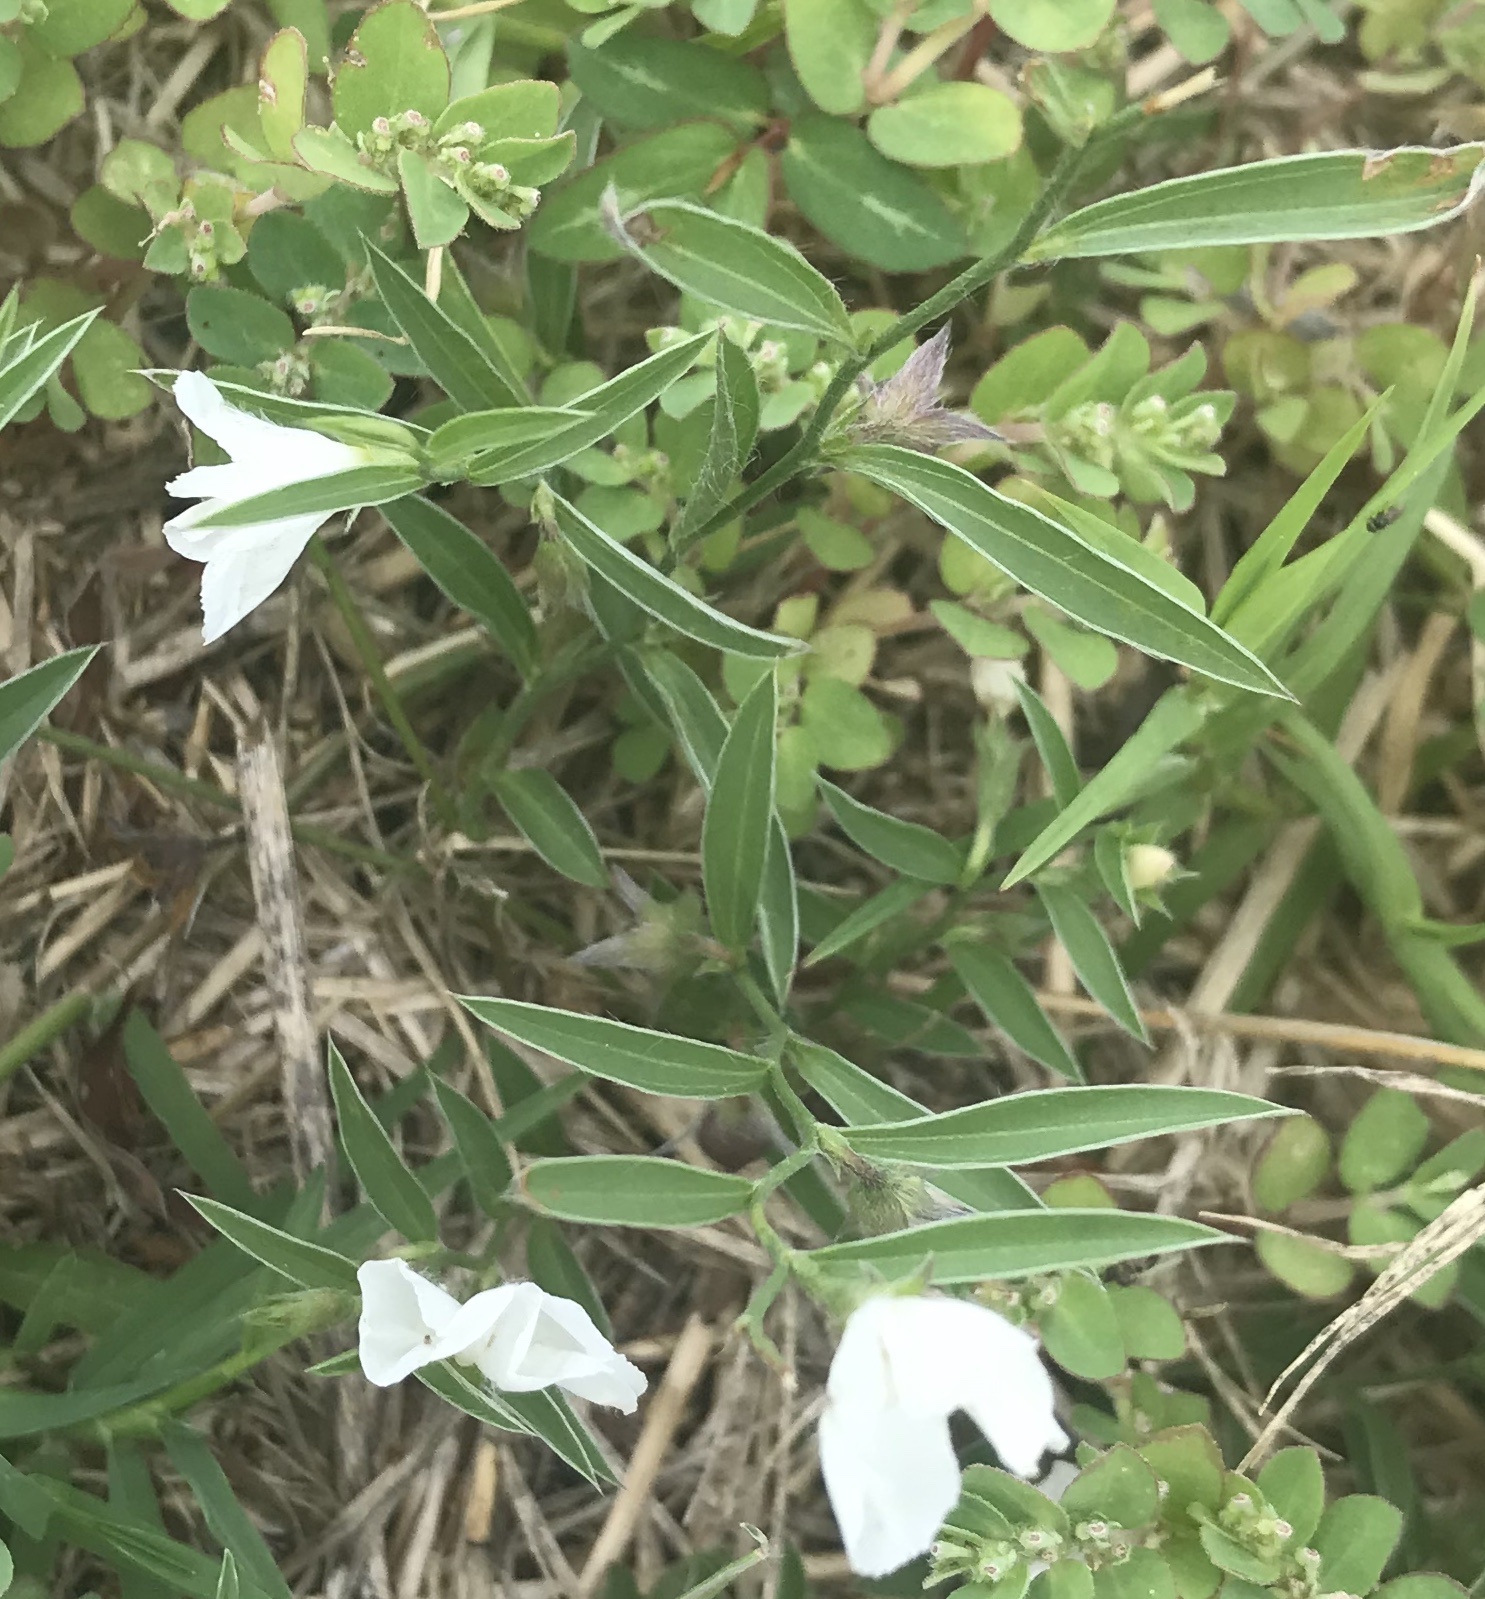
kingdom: Plantae
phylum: Tracheophyta
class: Magnoliopsida
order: Solanales
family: Convolvulaceae
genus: Evolvulus
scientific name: Evolvulus sericeus
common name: Blue dots
